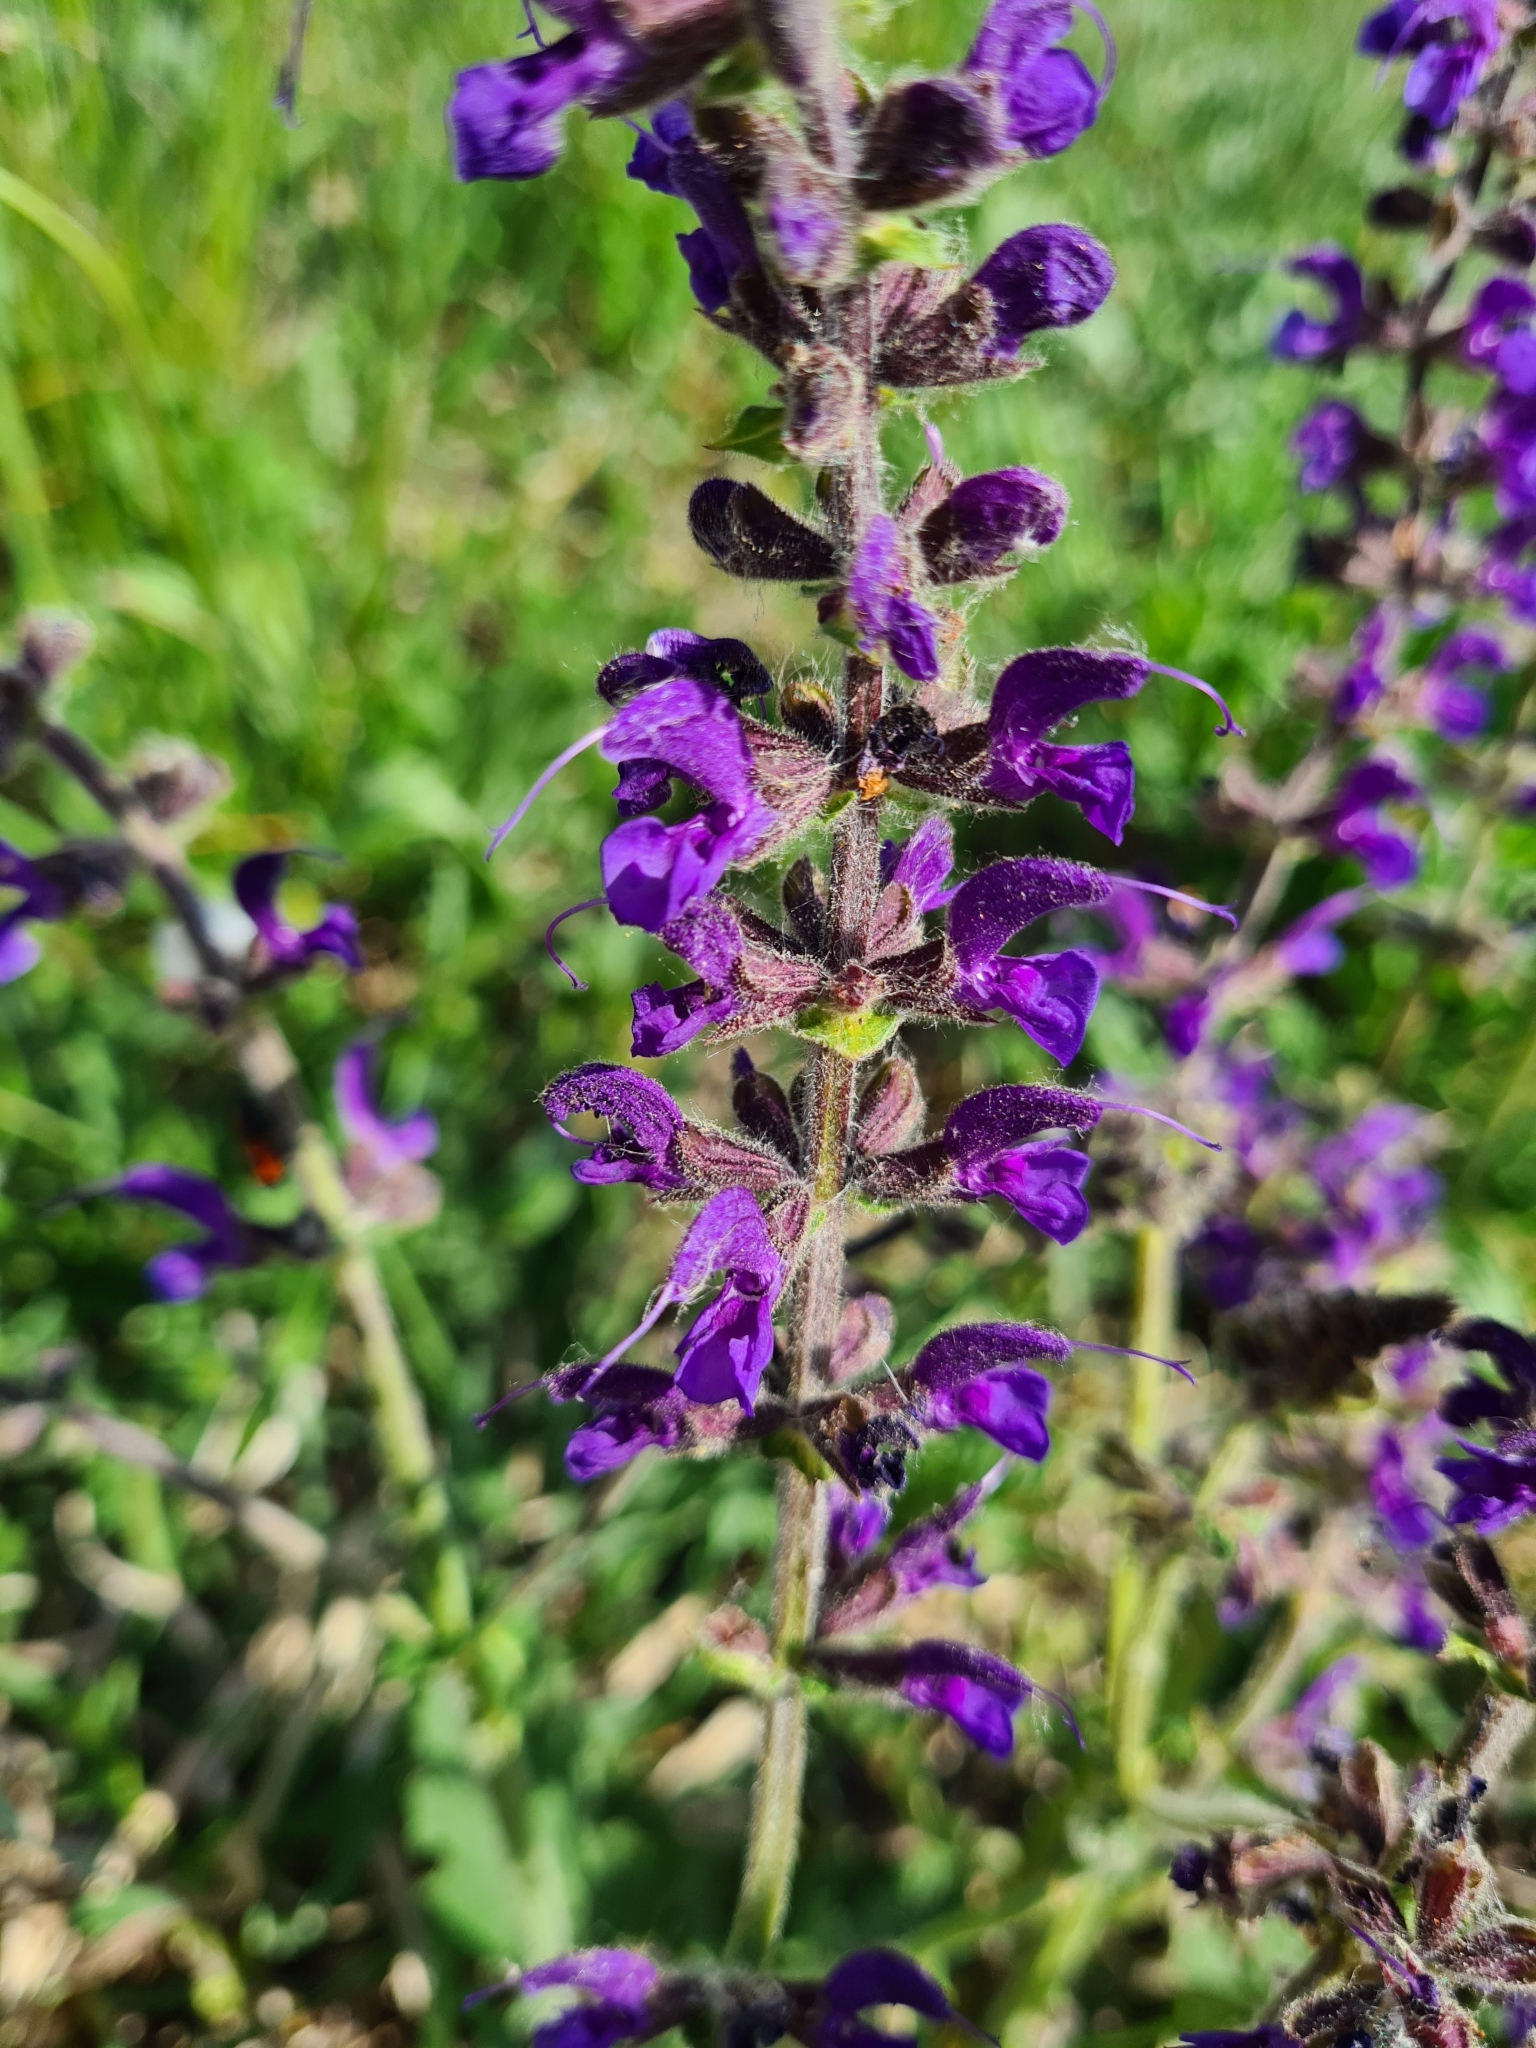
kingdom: Plantae
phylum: Tracheophyta
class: Magnoliopsida
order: Lamiales
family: Lamiaceae
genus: Salvia
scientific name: Salvia pratensis
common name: Meadow sage
